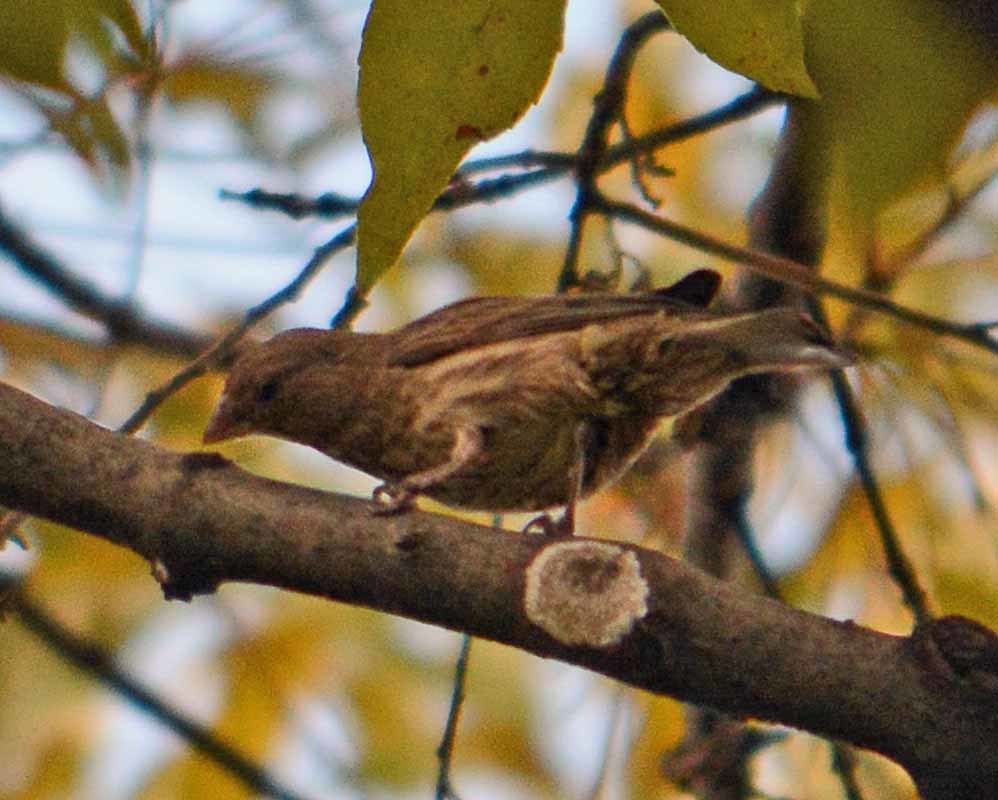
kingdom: Animalia
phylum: Chordata
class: Aves
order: Passeriformes
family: Fringillidae
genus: Haemorhous
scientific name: Haemorhous mexicanus
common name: House finch
